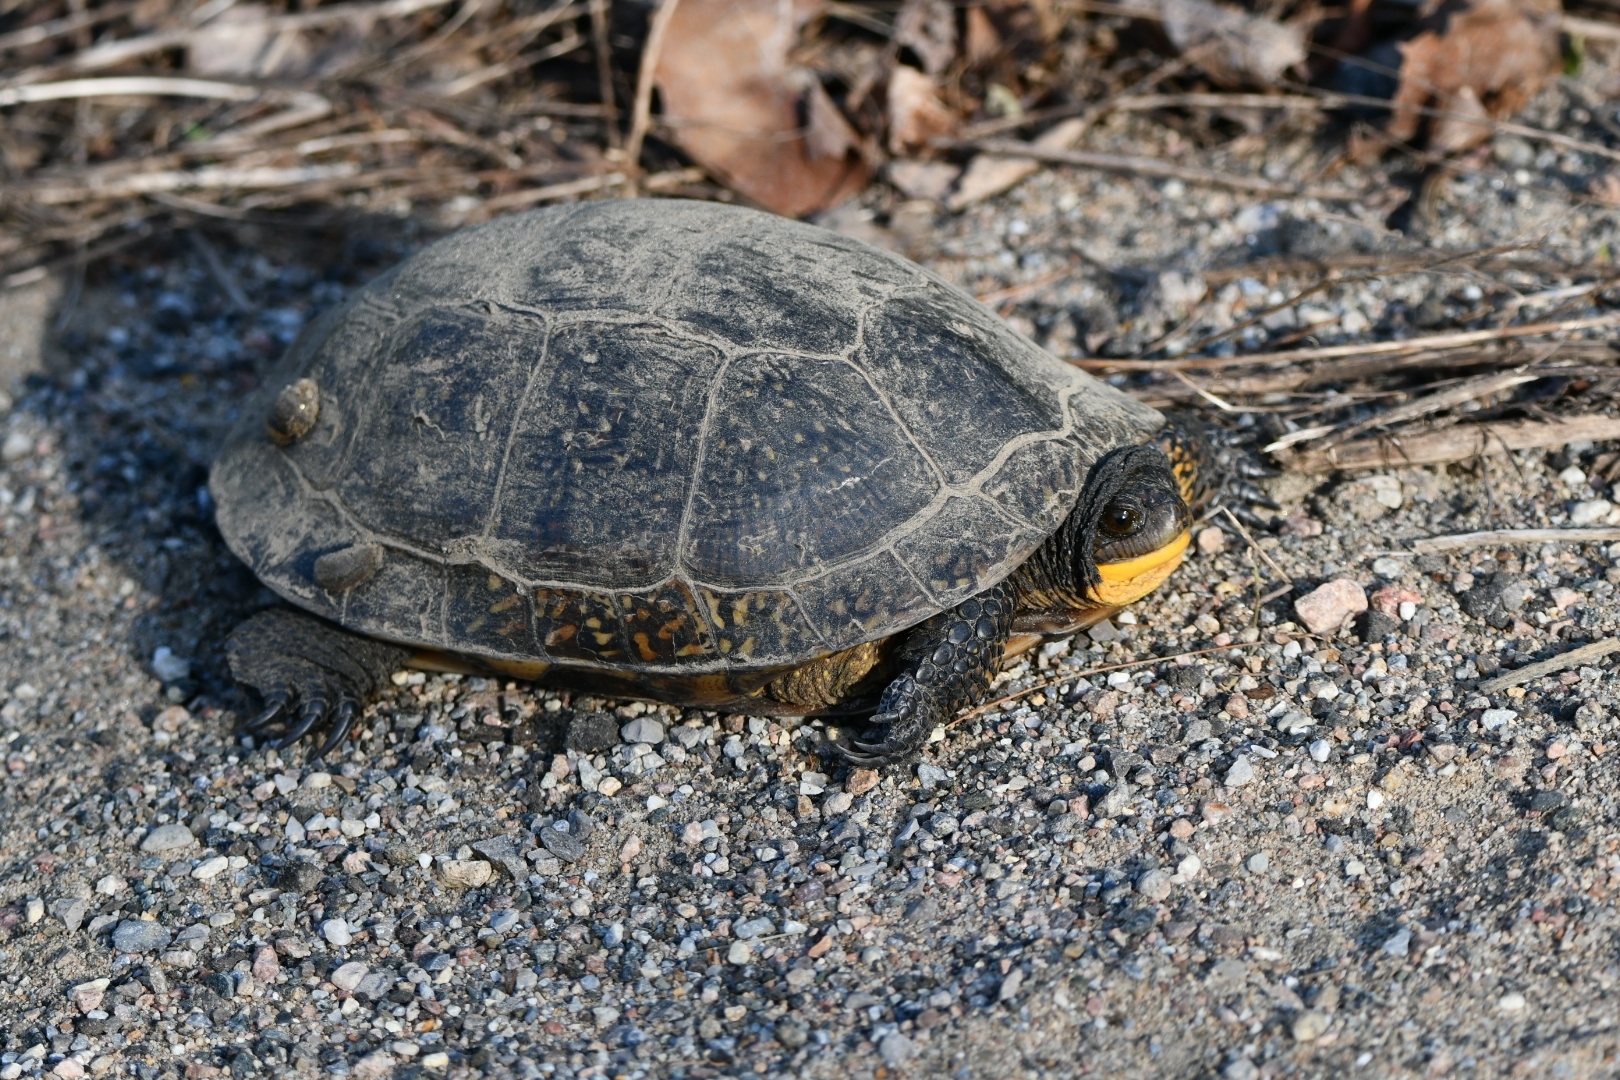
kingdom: Animalia
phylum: Chordata
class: Testudines
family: Emydidae
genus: Emys
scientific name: Emys blandingii
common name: Blanding's turtle
